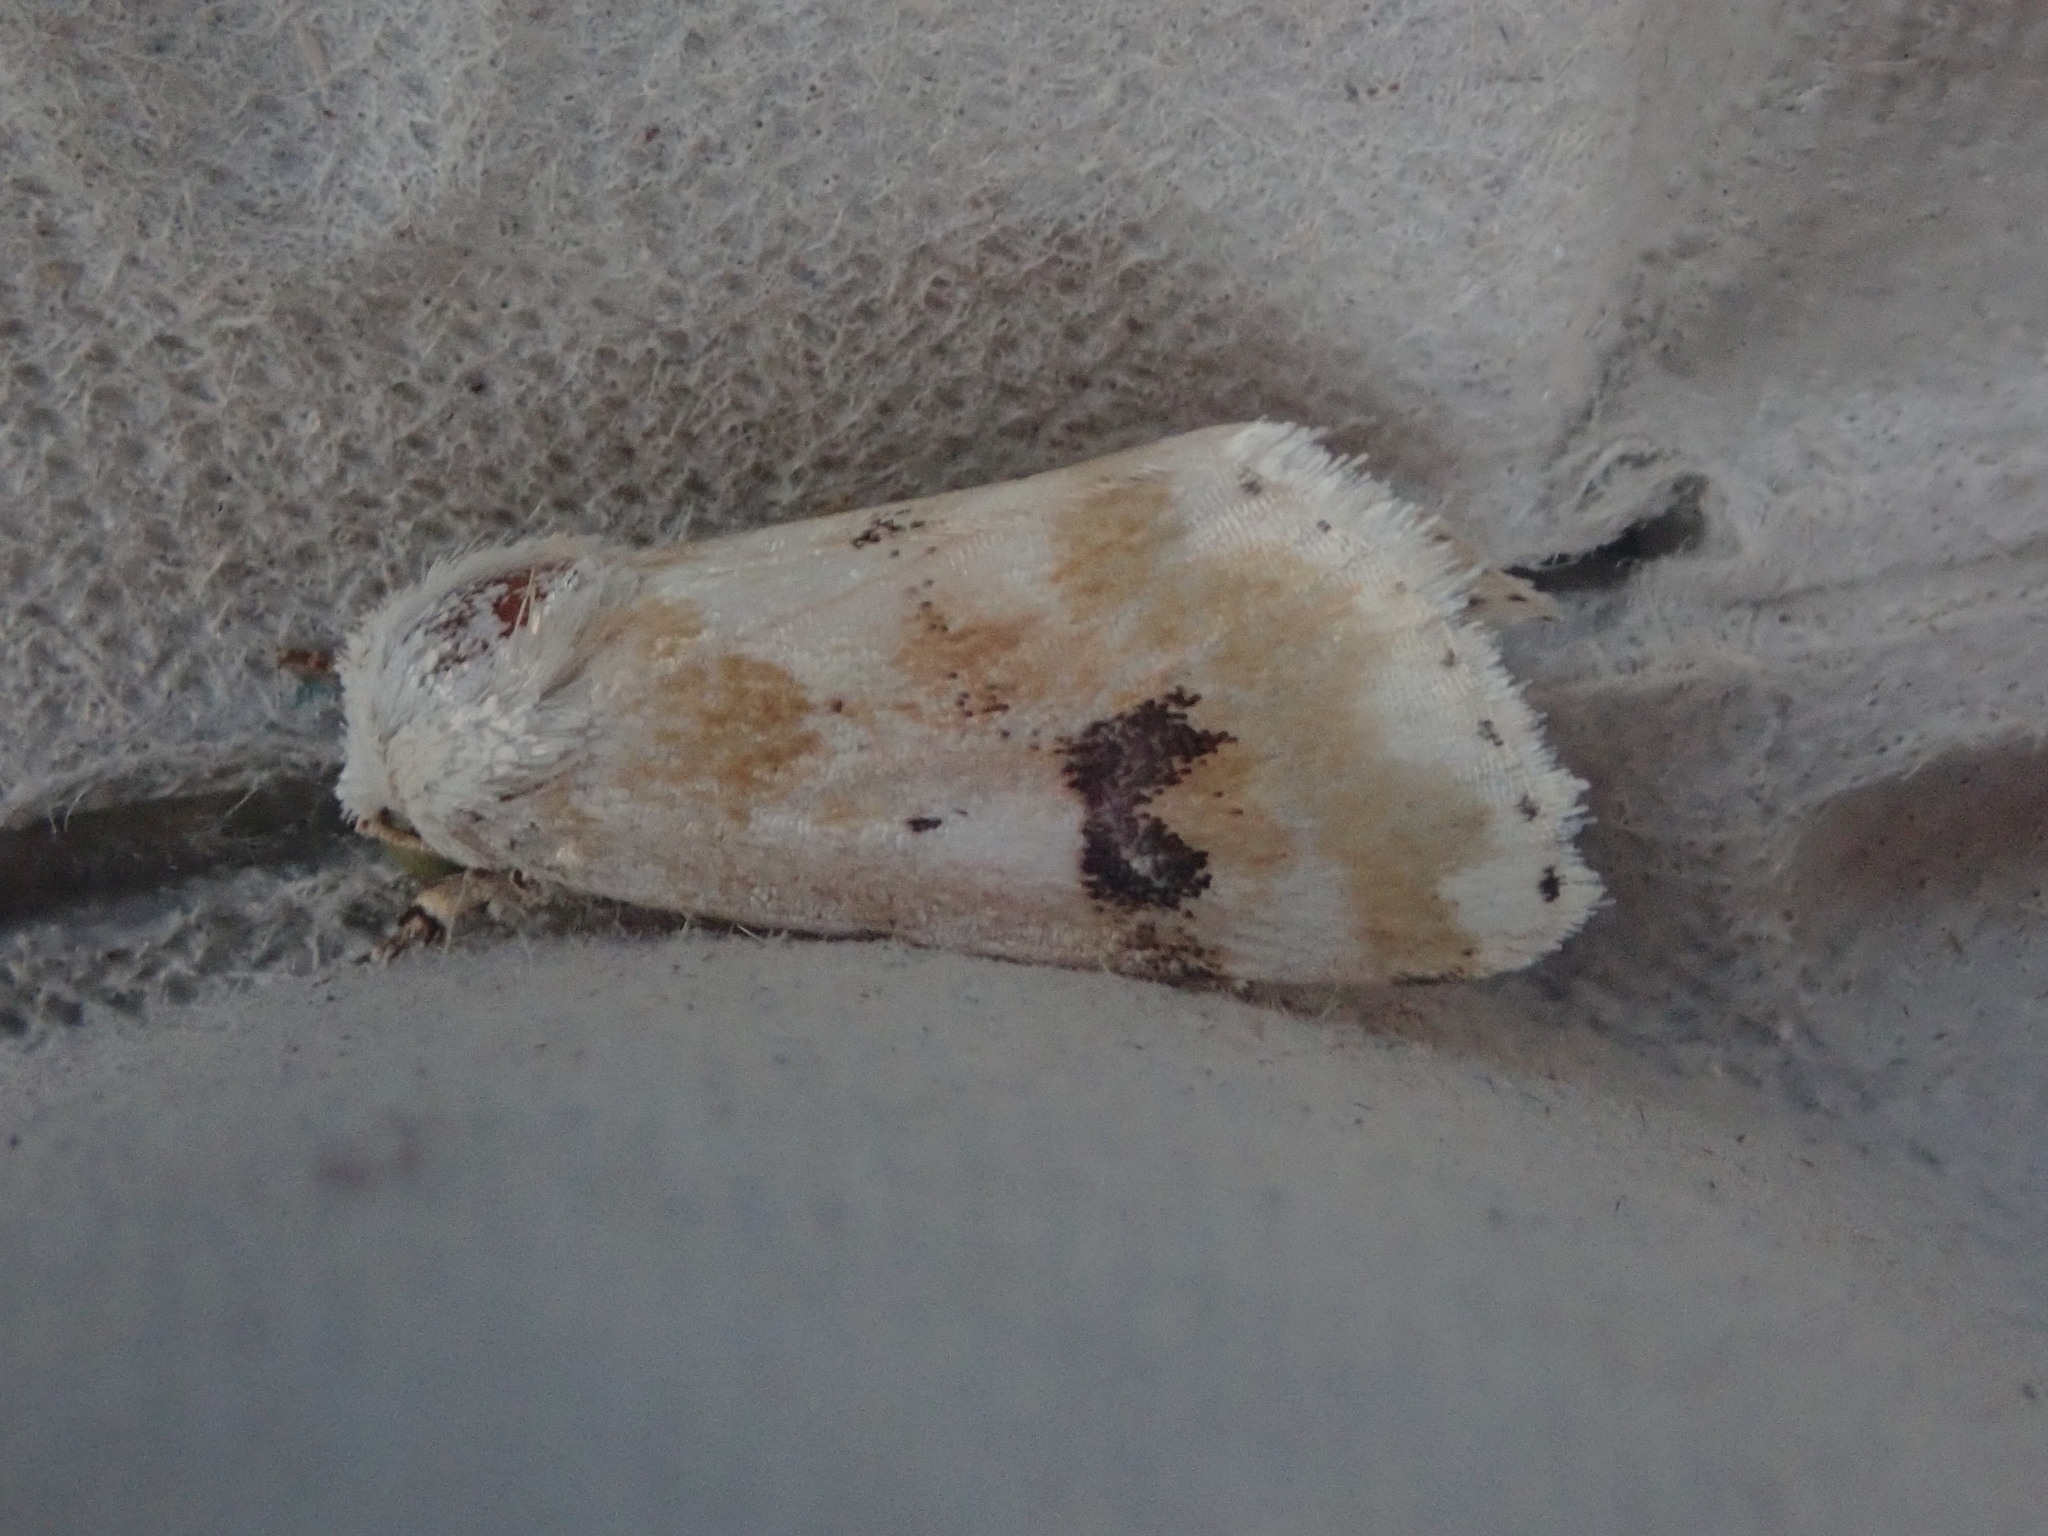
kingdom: Animalia
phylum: Arthropoda
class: Insecta
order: Lepidoptera
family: Noctuidae
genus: Schinia
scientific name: Schinia nundina
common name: Goldenrod flower moth
